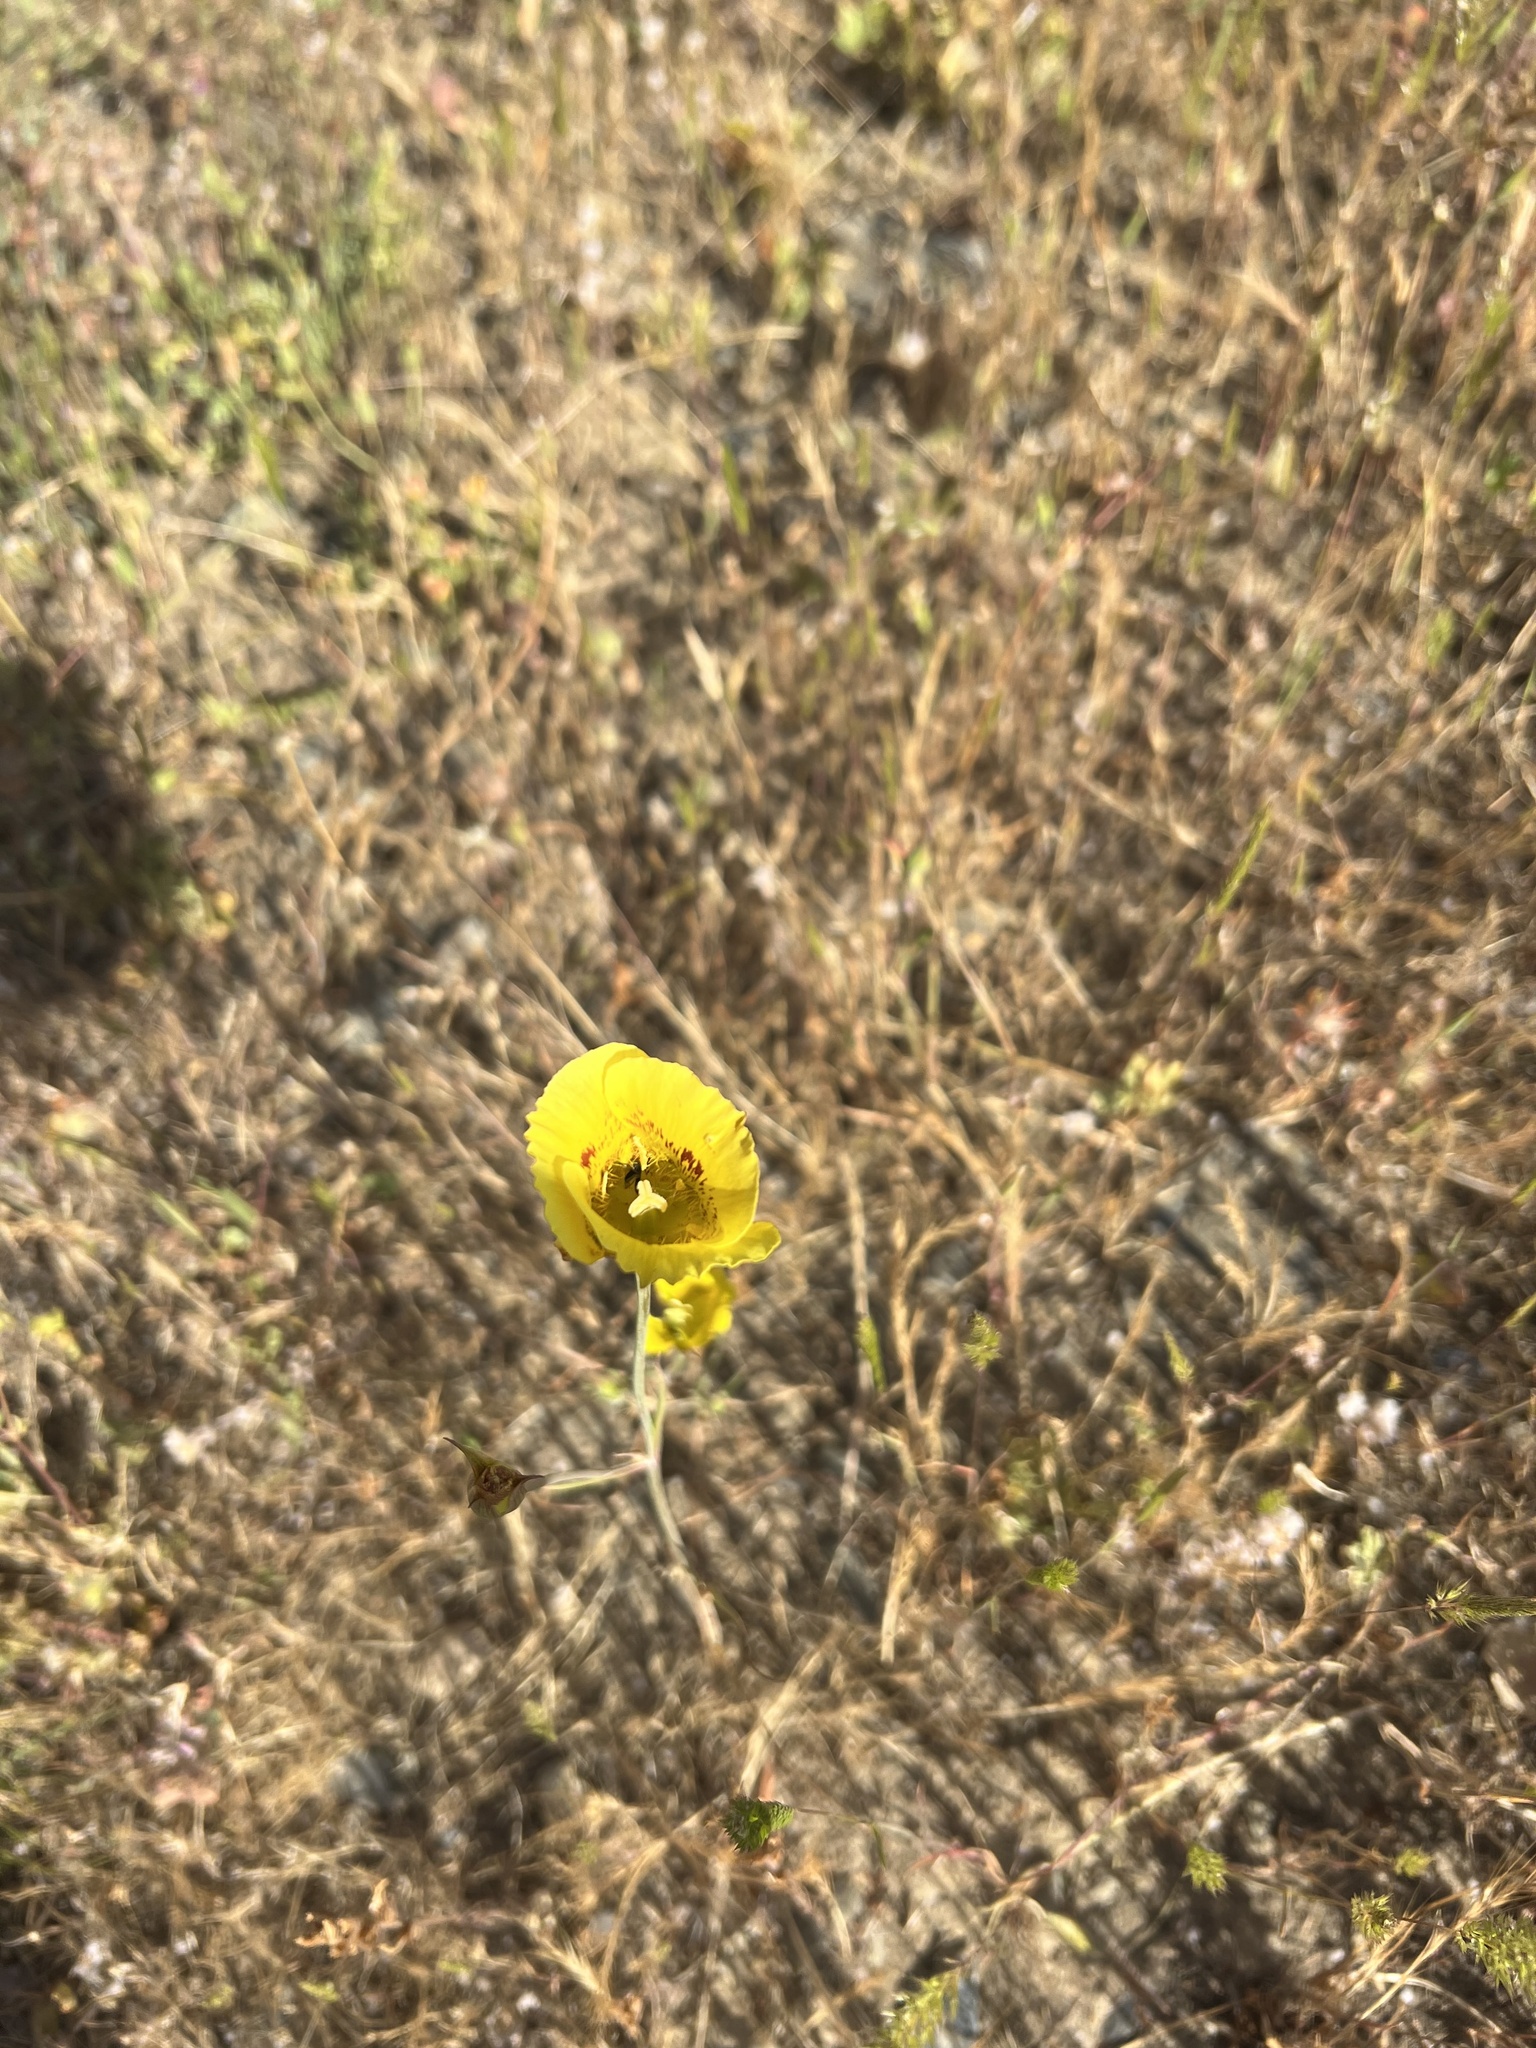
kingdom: Plantae
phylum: Tracheophyta
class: Liliopsida
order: Liliales
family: Liliaceae
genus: Calochortus
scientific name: Calochortus luteus
